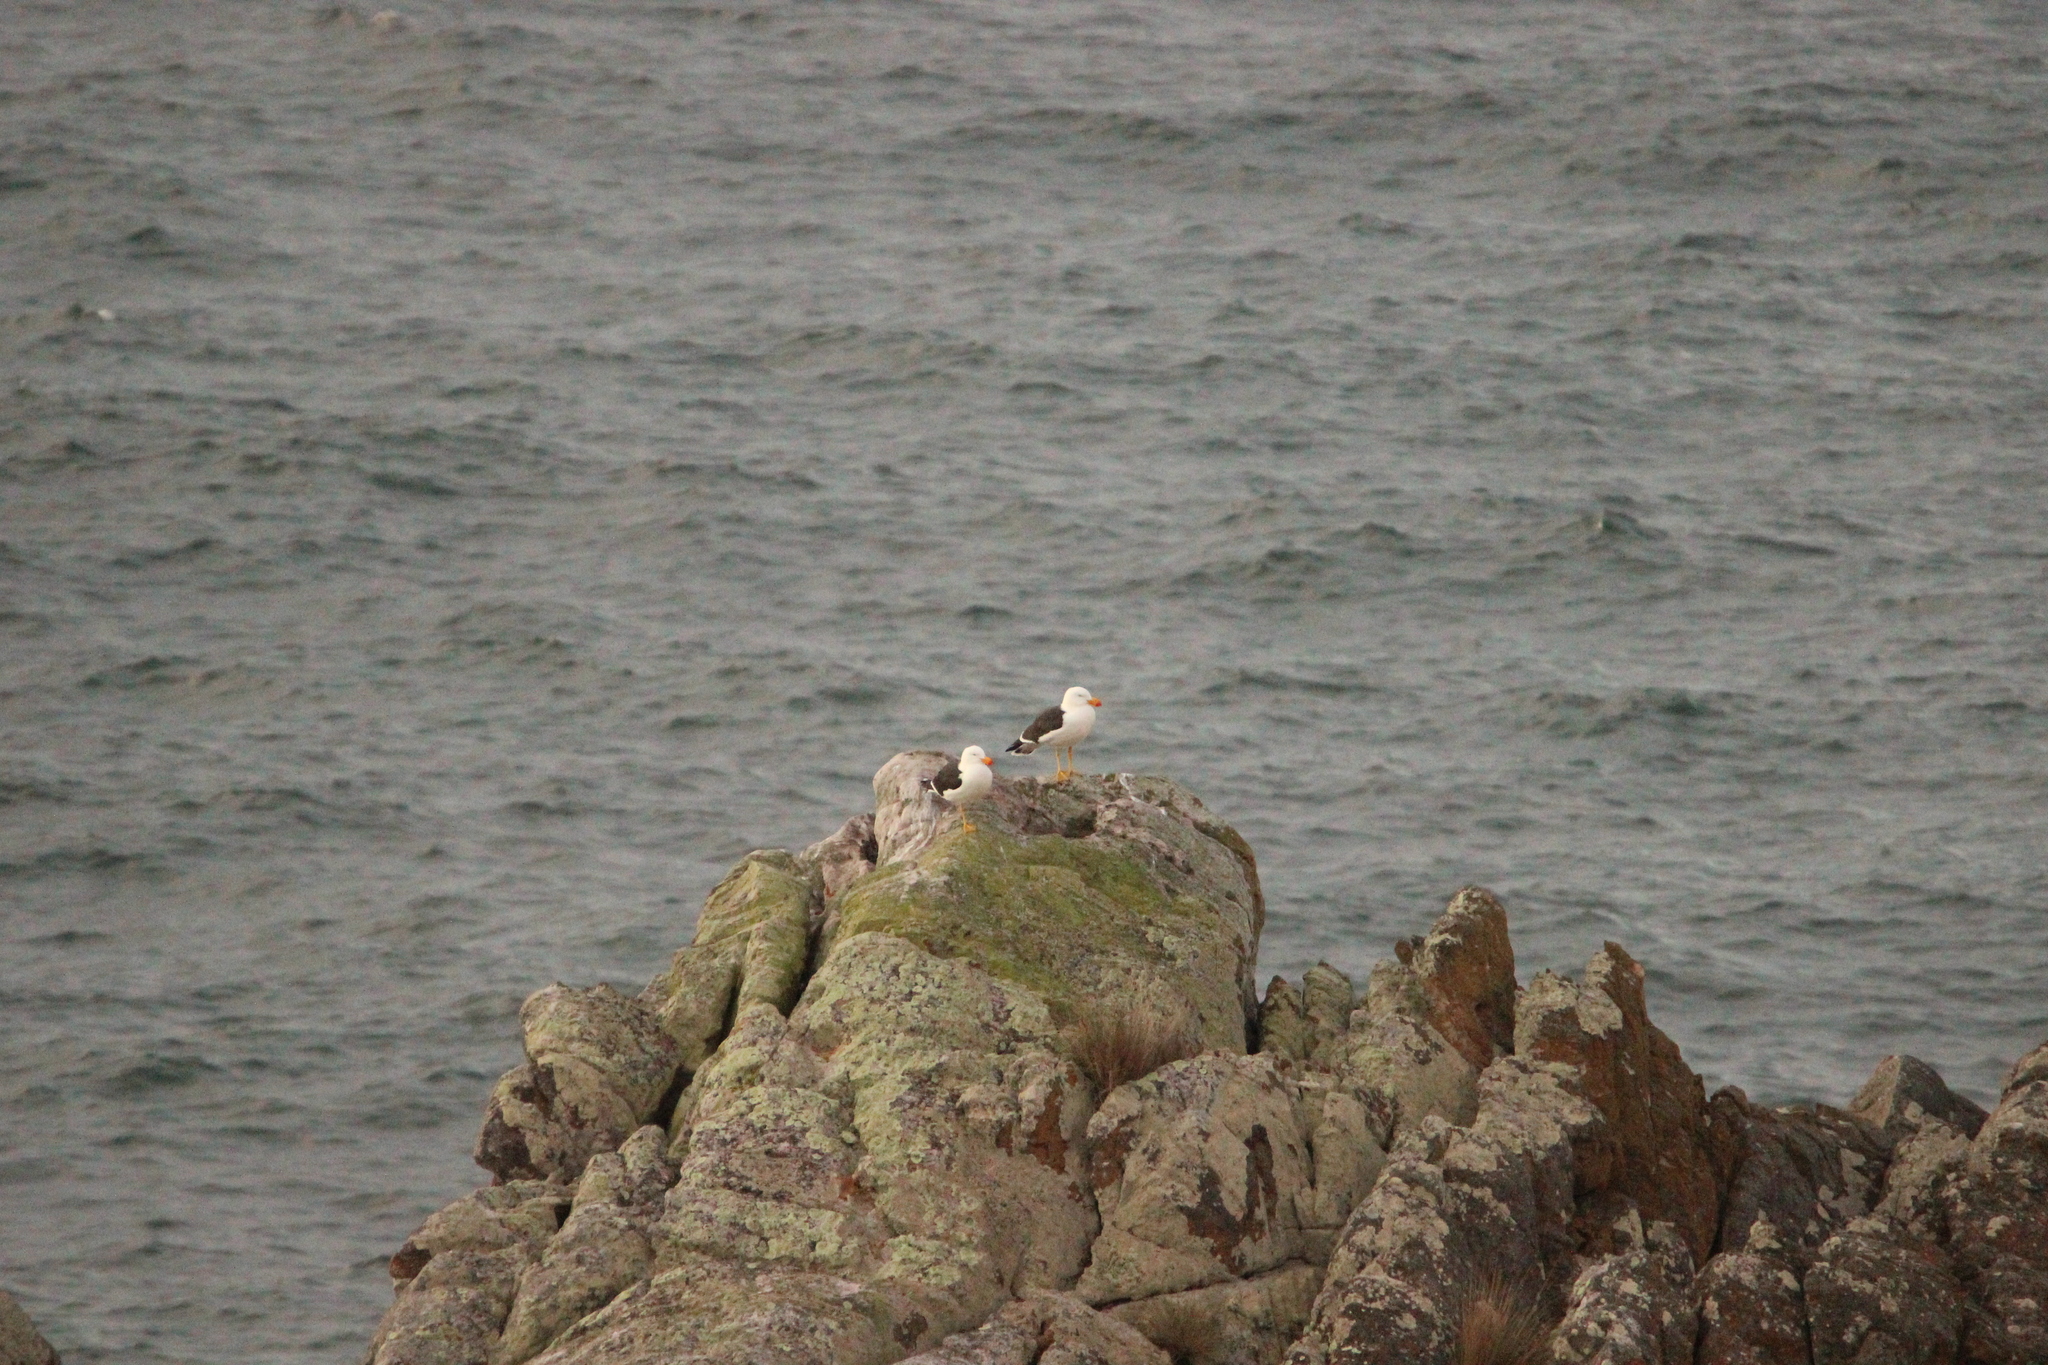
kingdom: Animalia
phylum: Chordata
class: Aves
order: Charadriiformes
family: Laridae
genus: Larus
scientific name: Larus pacificus
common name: Pacific gull
